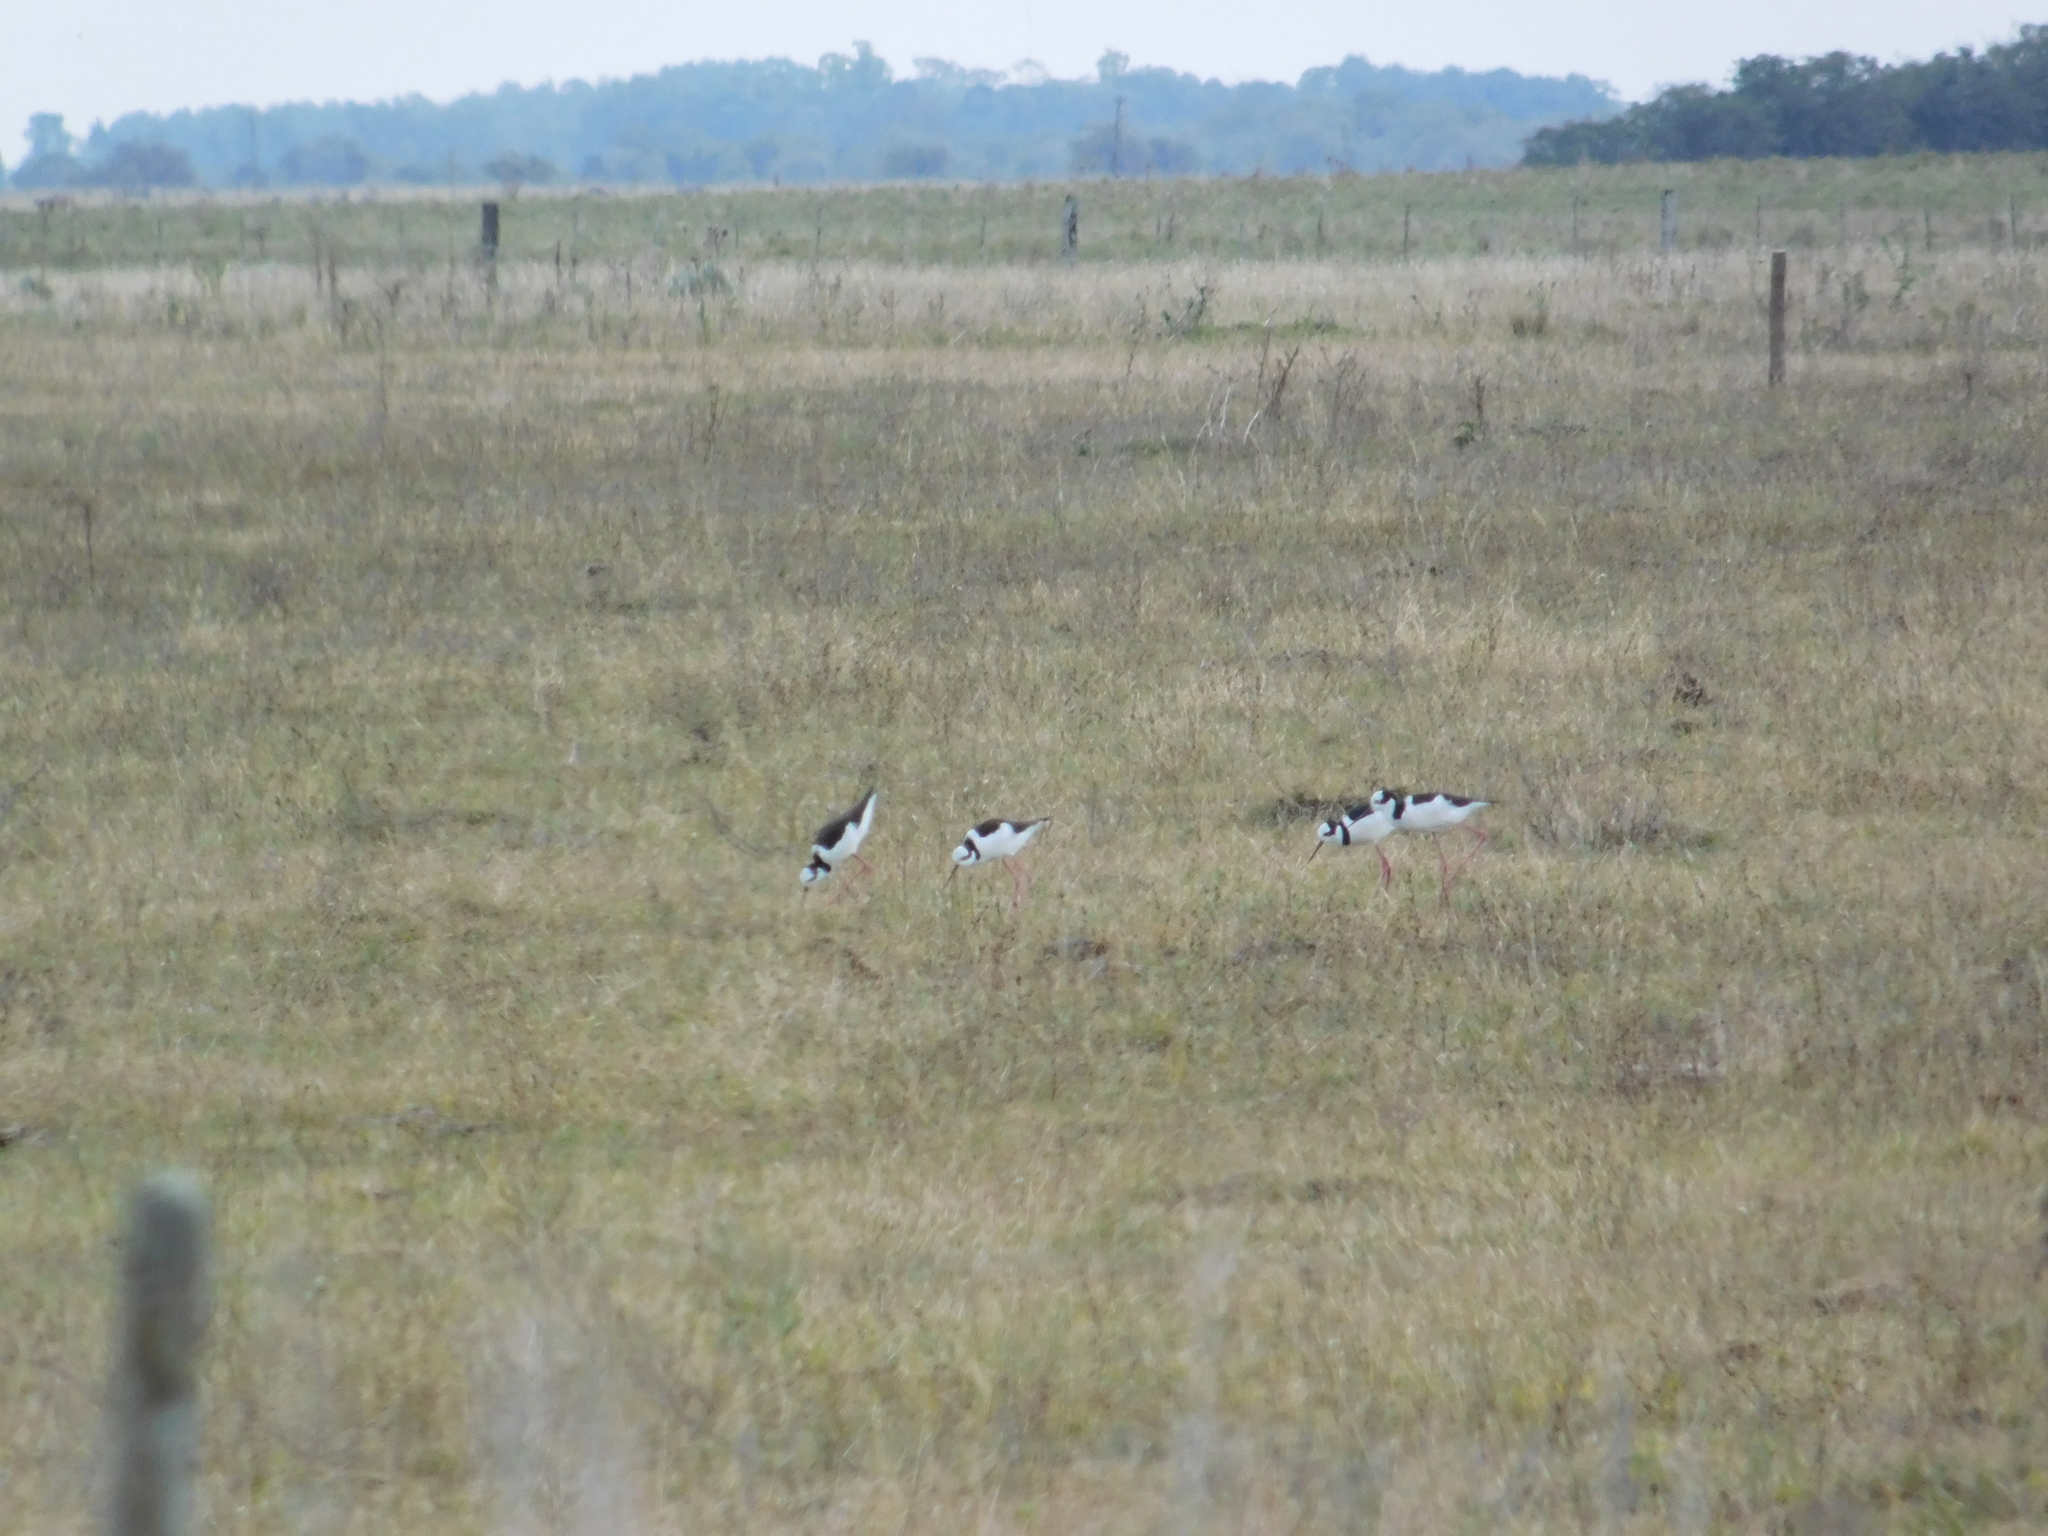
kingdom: Animalia
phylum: Chordata
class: Aves
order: Charadriiformes
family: Recurvirostridae
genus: Himantopus
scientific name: Himantopus mexicanus
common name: Black-necked stilt
